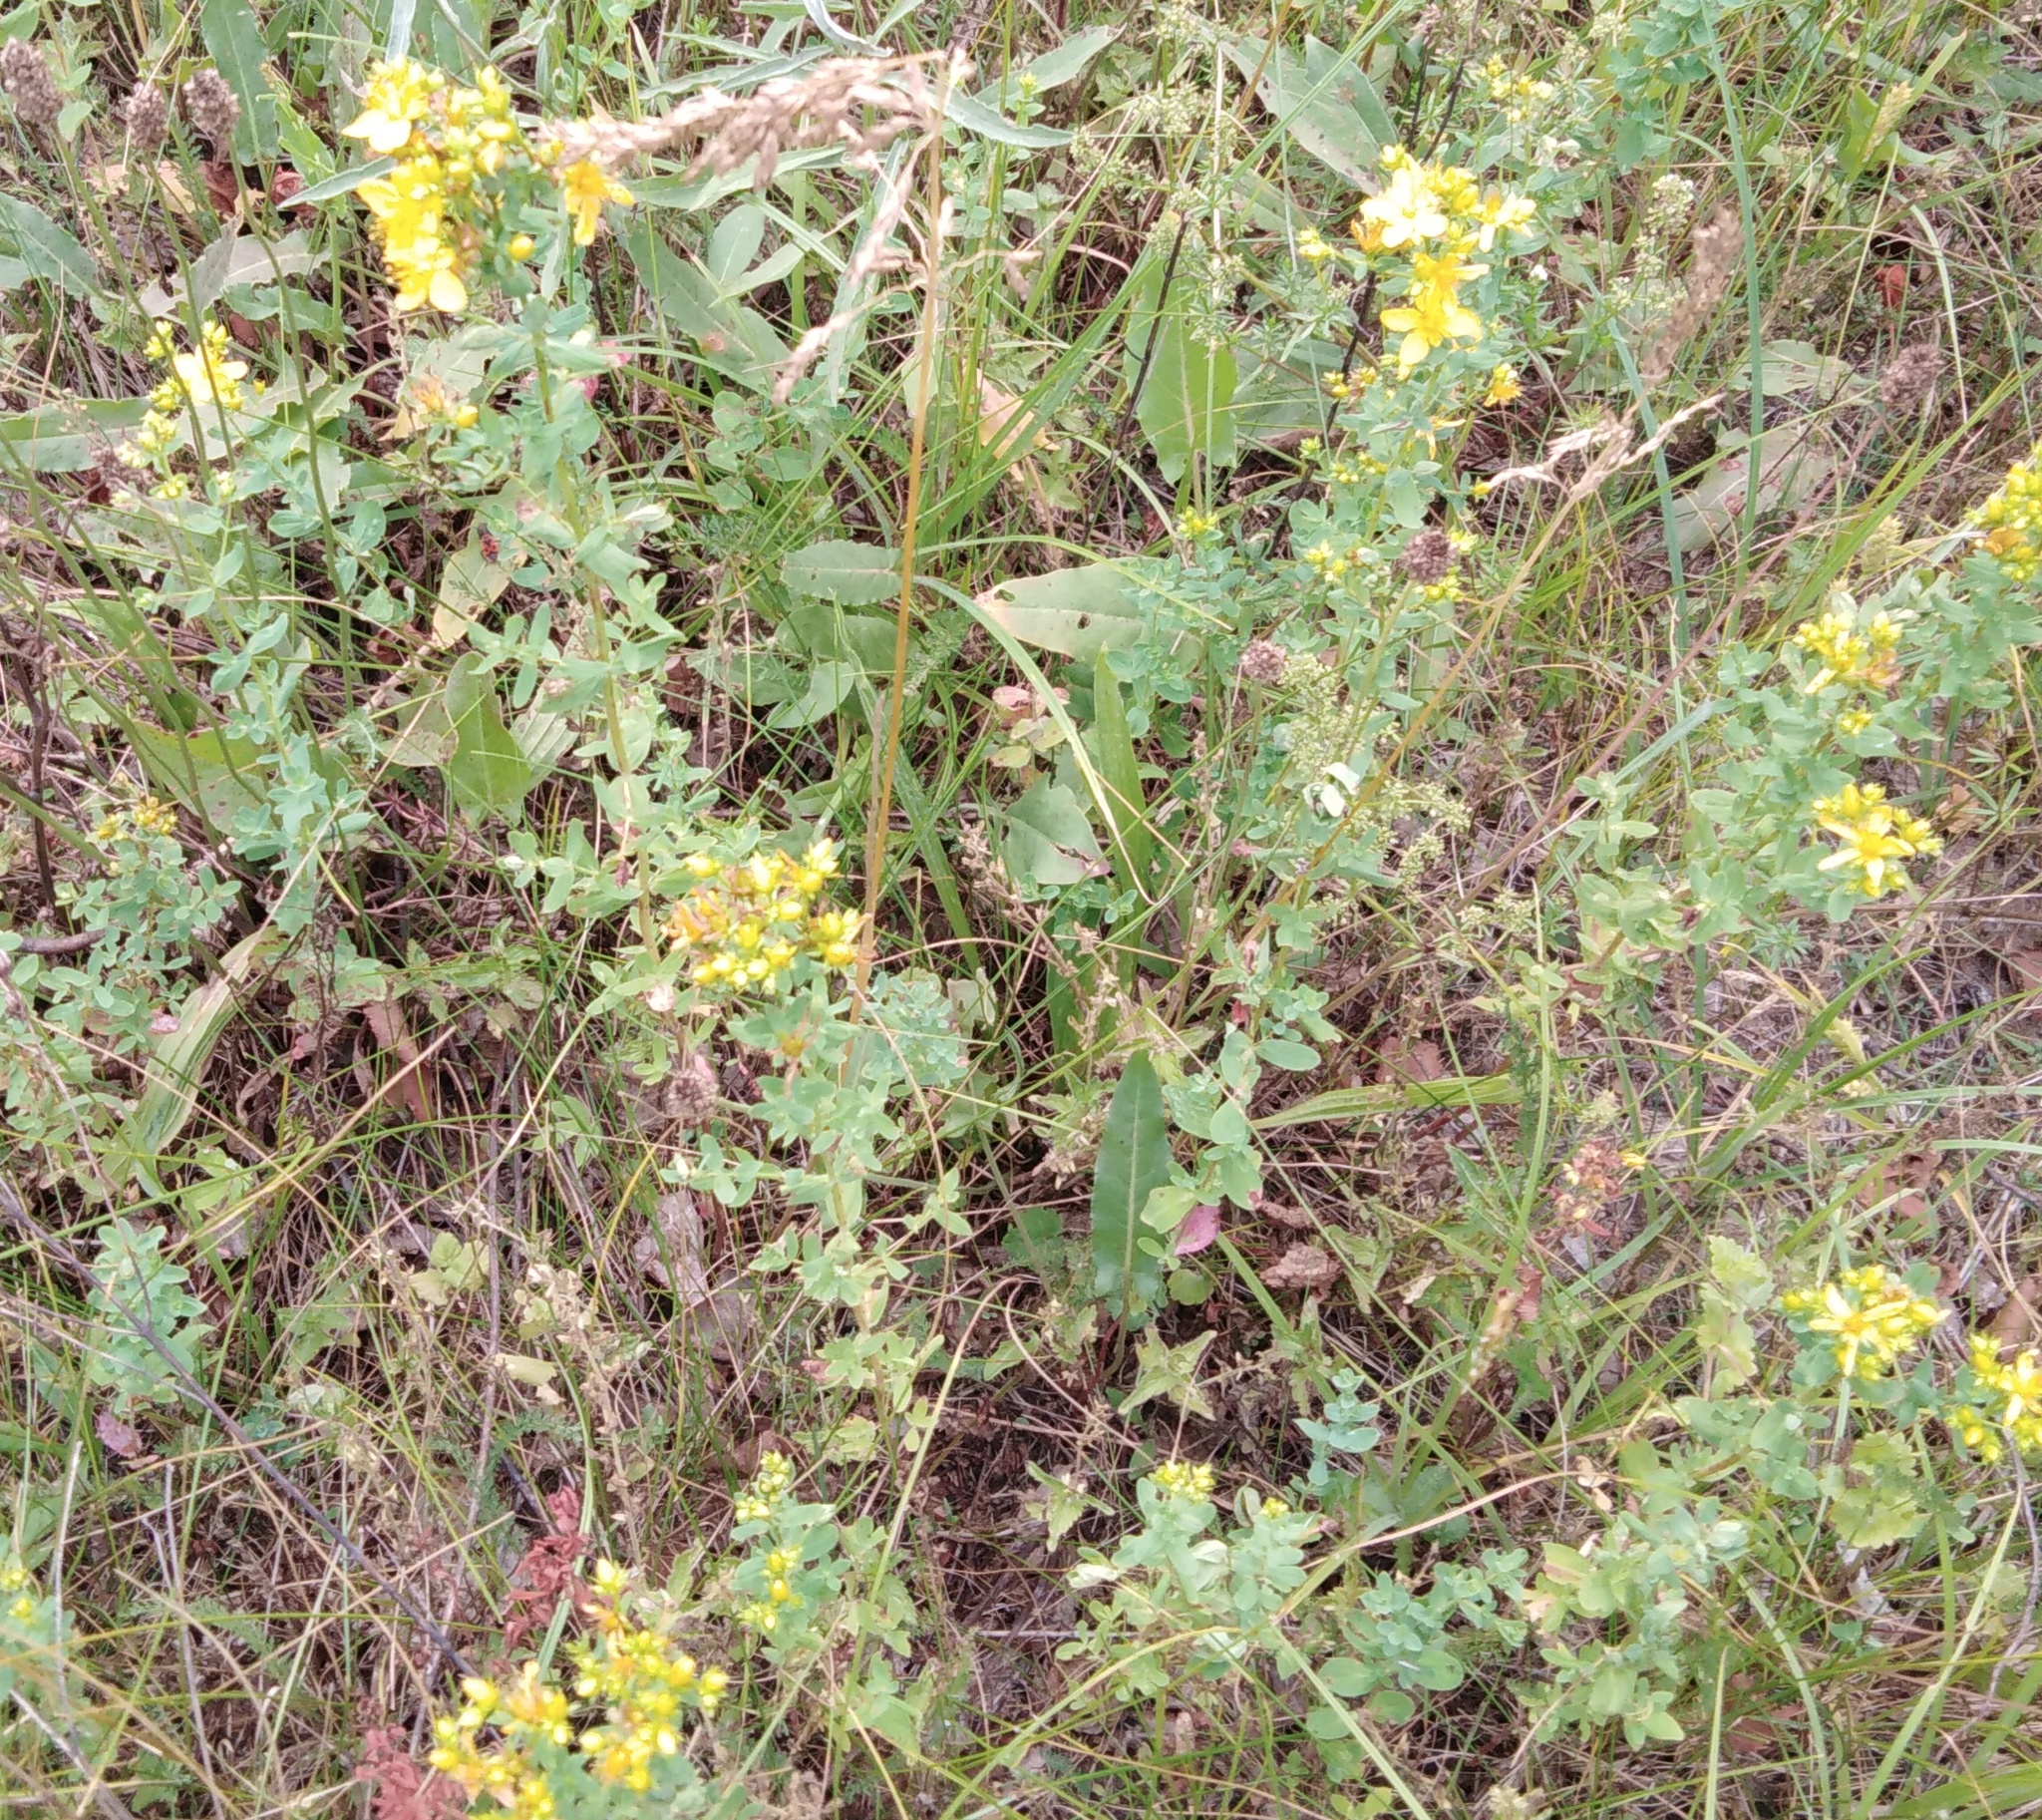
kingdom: Plantae
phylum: Tracheophyta
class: Magnoliopsida
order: Malpighiales
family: Hypericaceae
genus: Hypericum
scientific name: Hypericum perforatum
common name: Common st. johnswort
